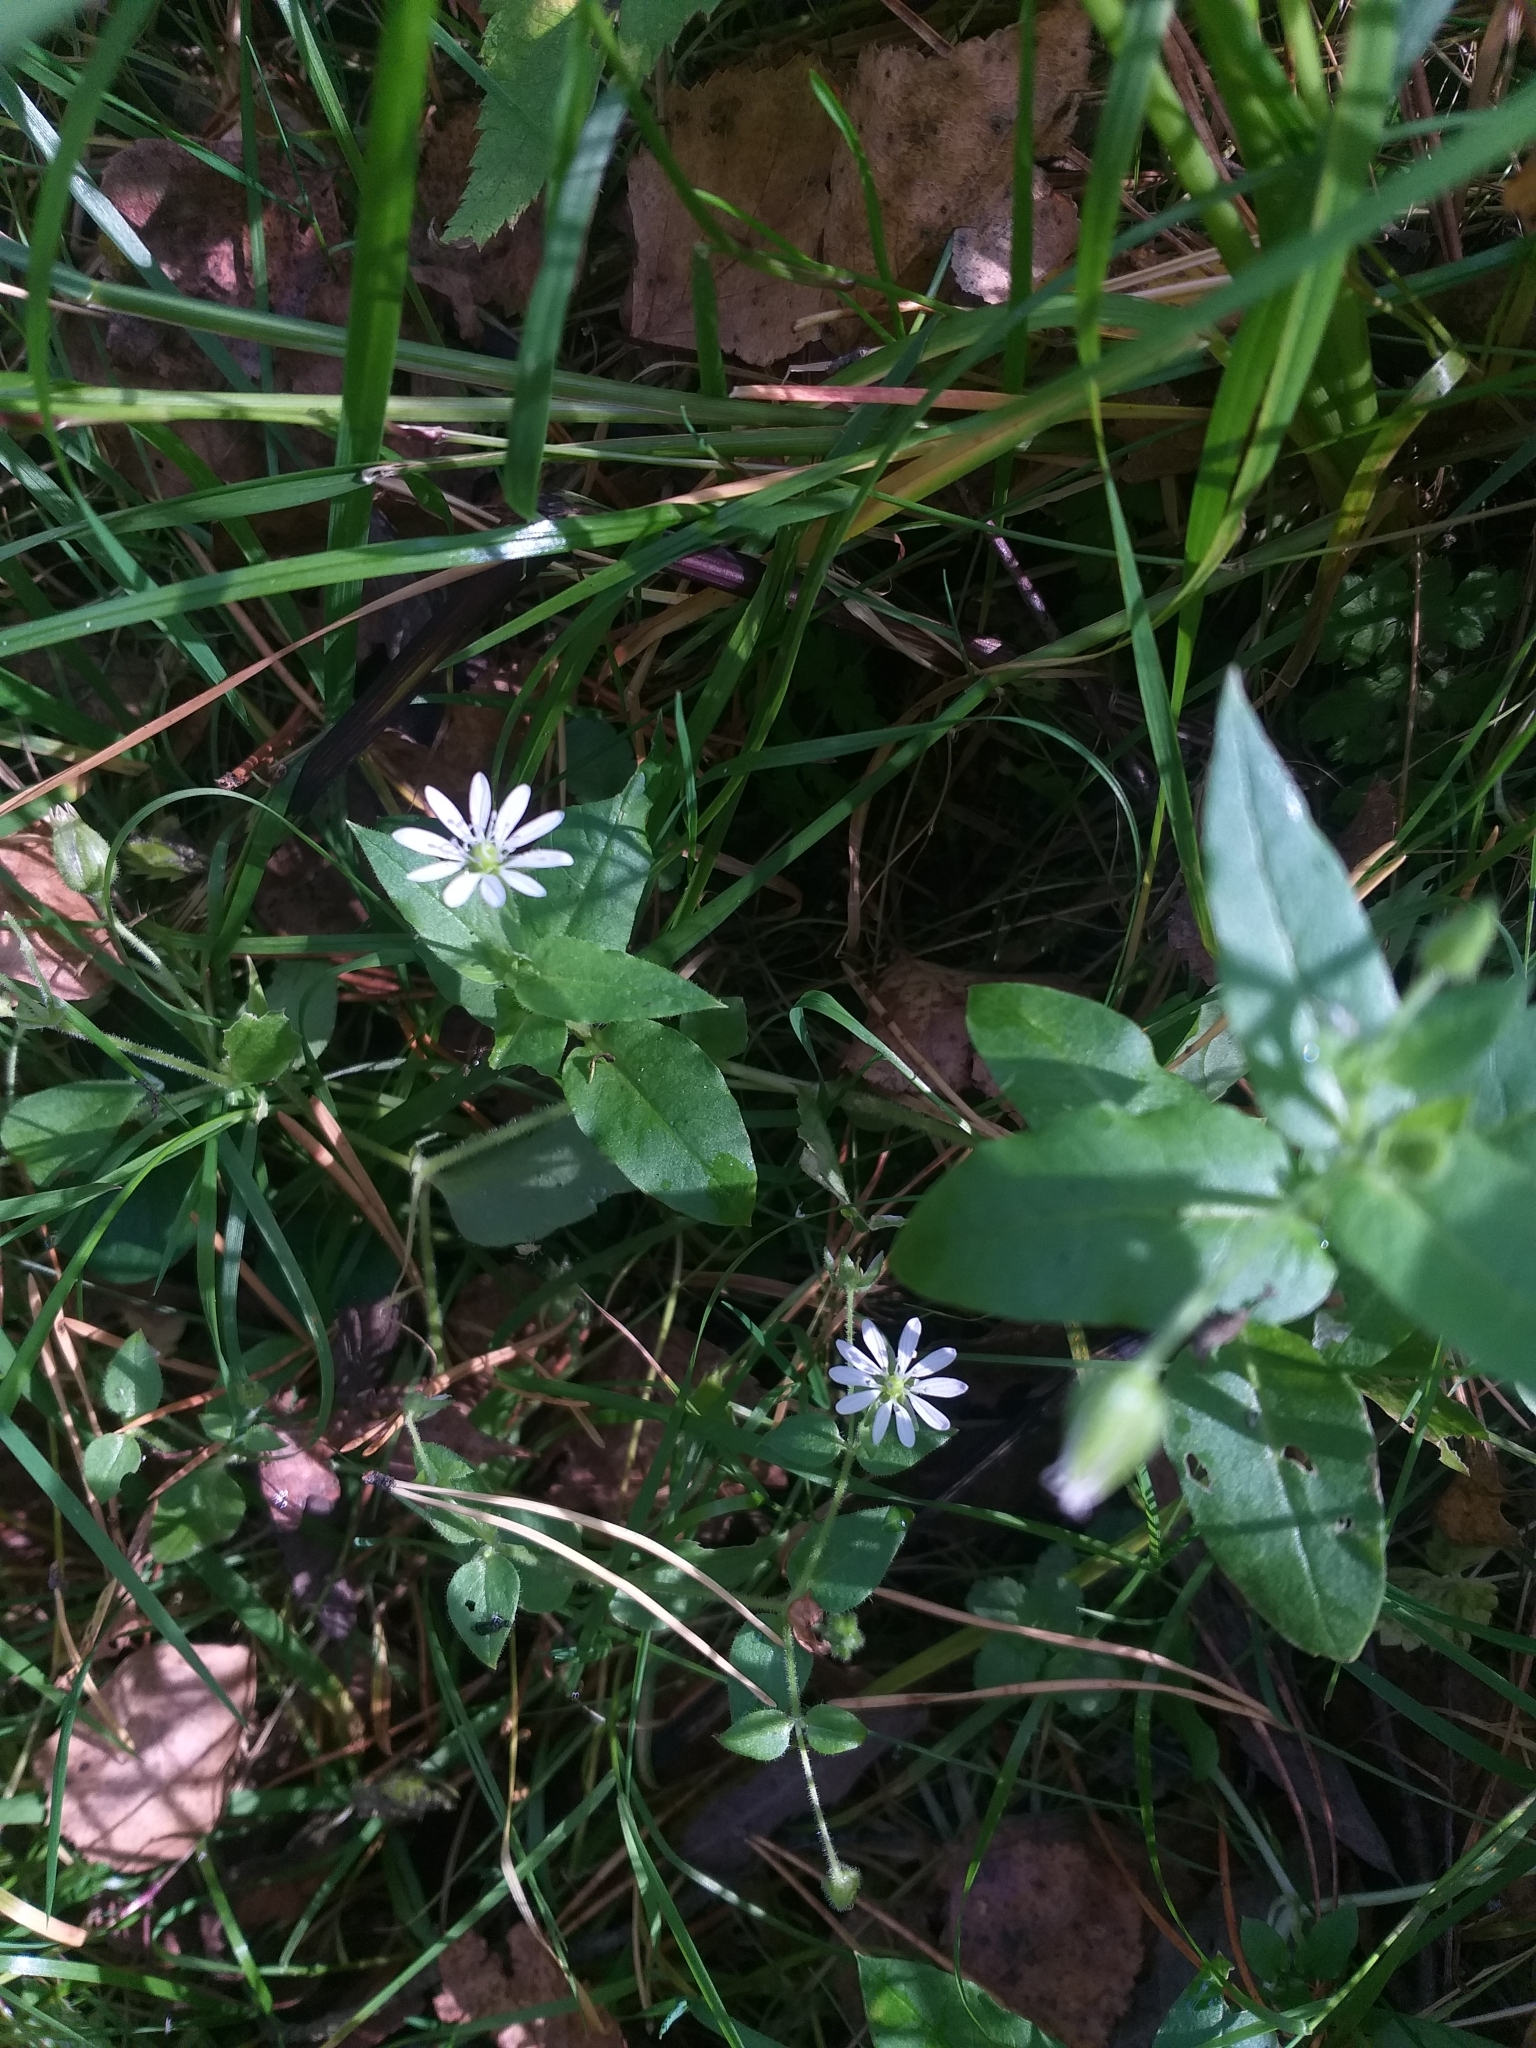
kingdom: Plantae
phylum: Tracheophyta
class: Magnoliopsida
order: Caryophyllales
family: Caryophyllaceae
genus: Stellaria
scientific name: Stellaria aquatica
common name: Water chickweed
